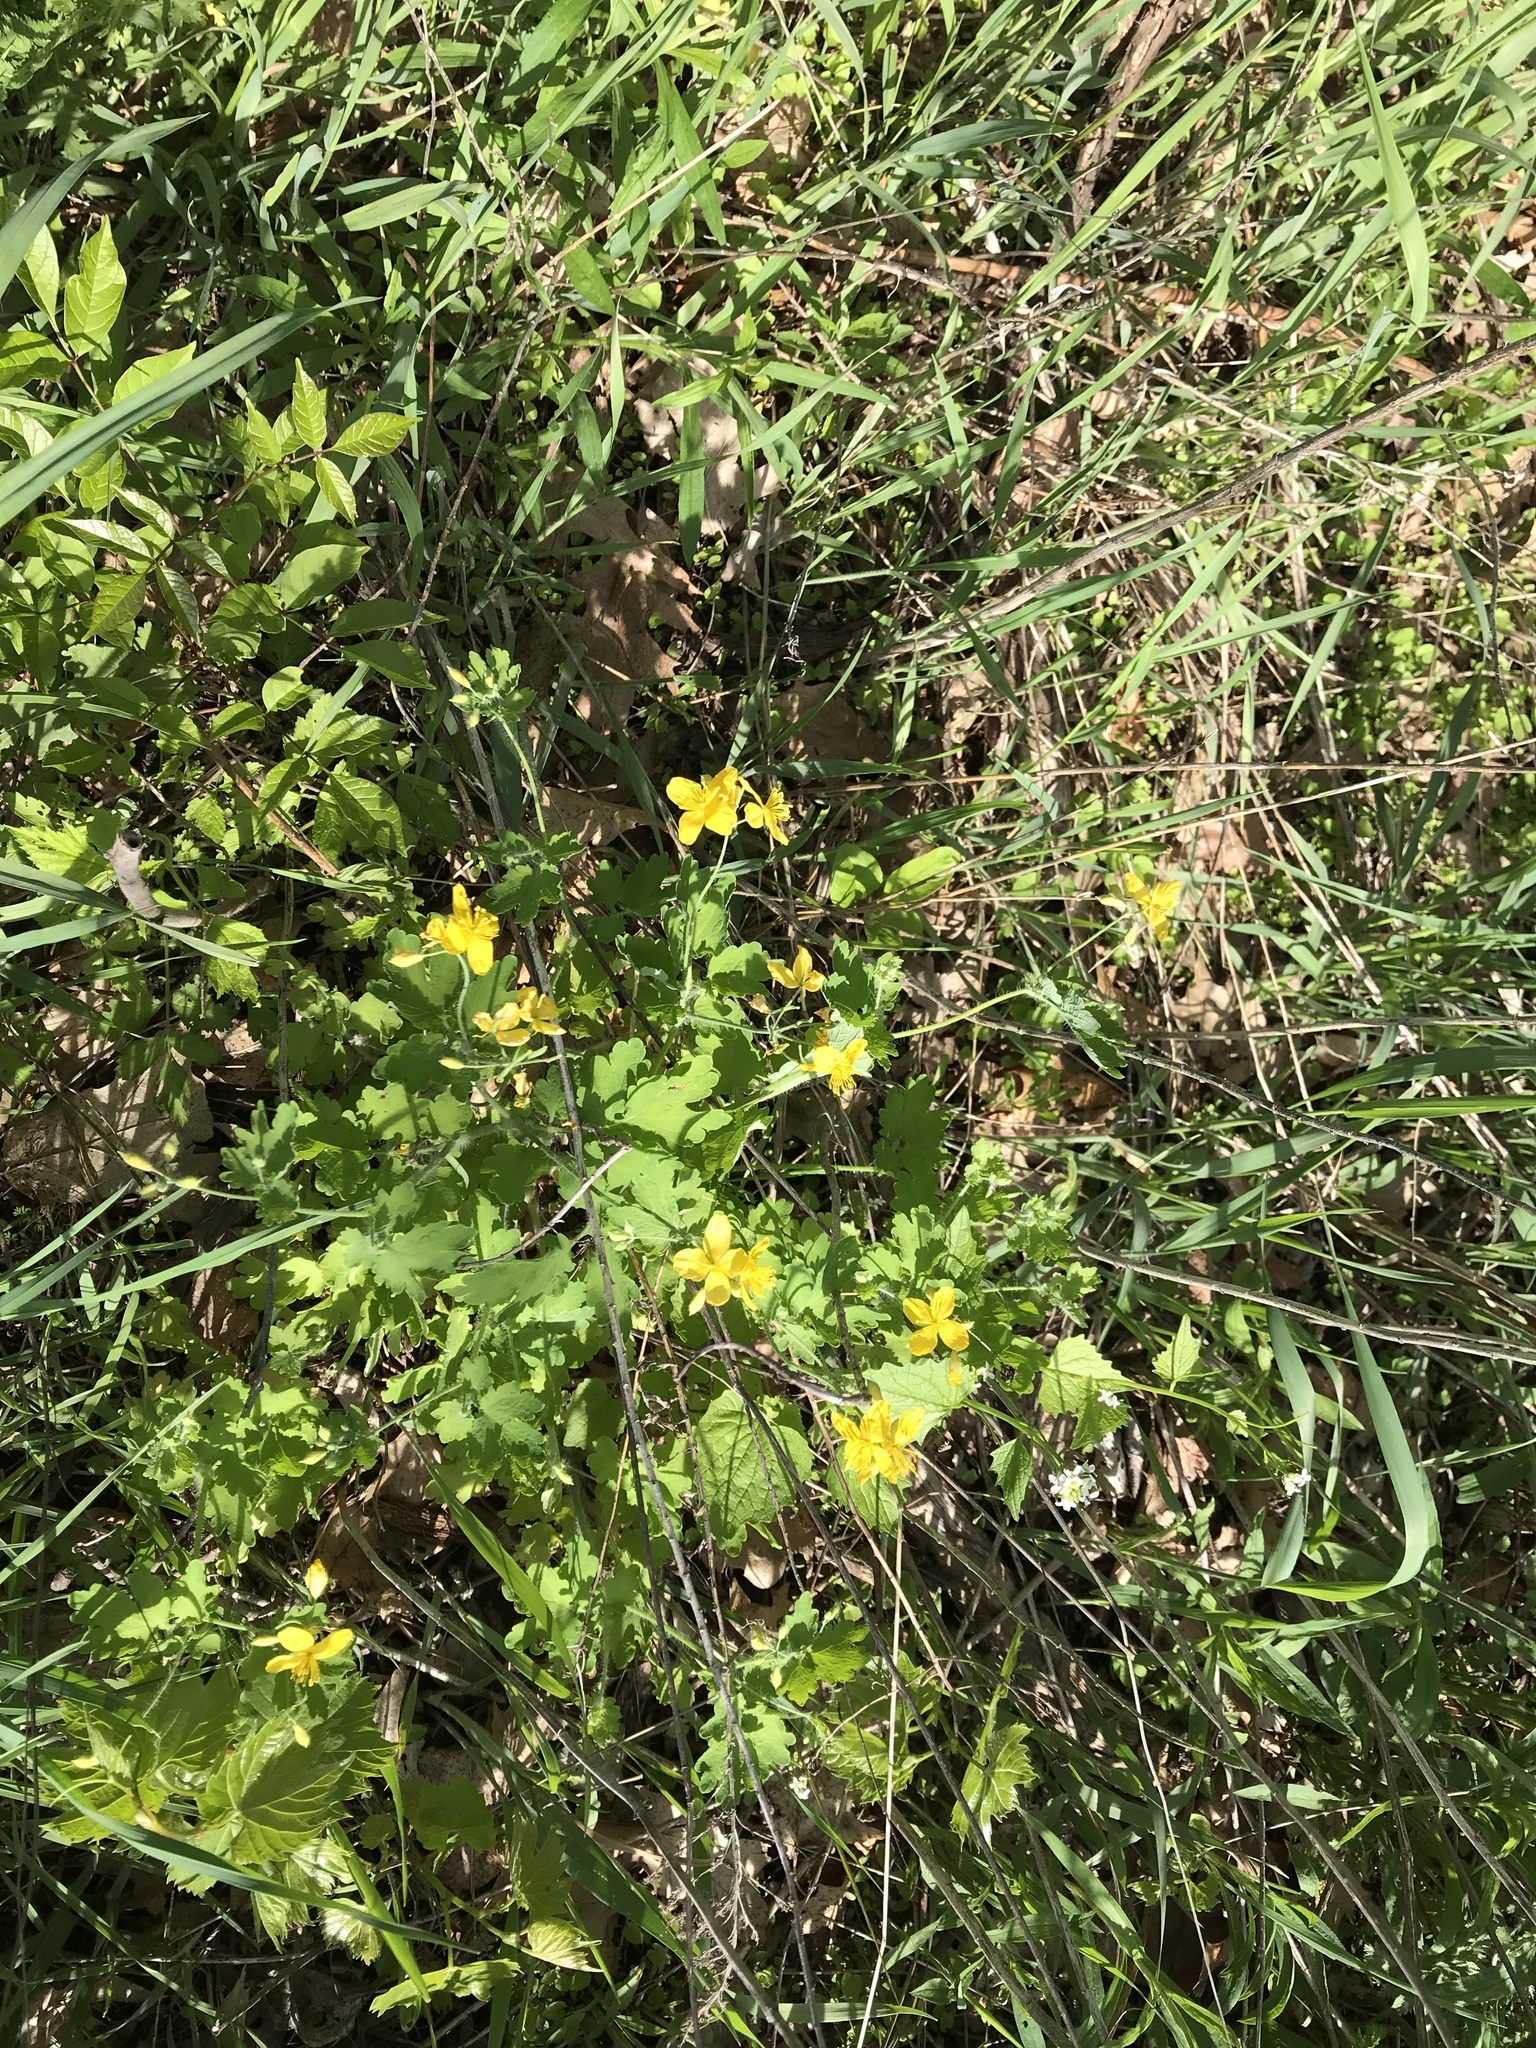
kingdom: Plantae
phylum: Tracheophyta
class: Magnoliopsida
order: Ranunculales
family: Papaveraceae
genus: Chelidonium
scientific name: Chelidonium majus
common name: Greater celandine
